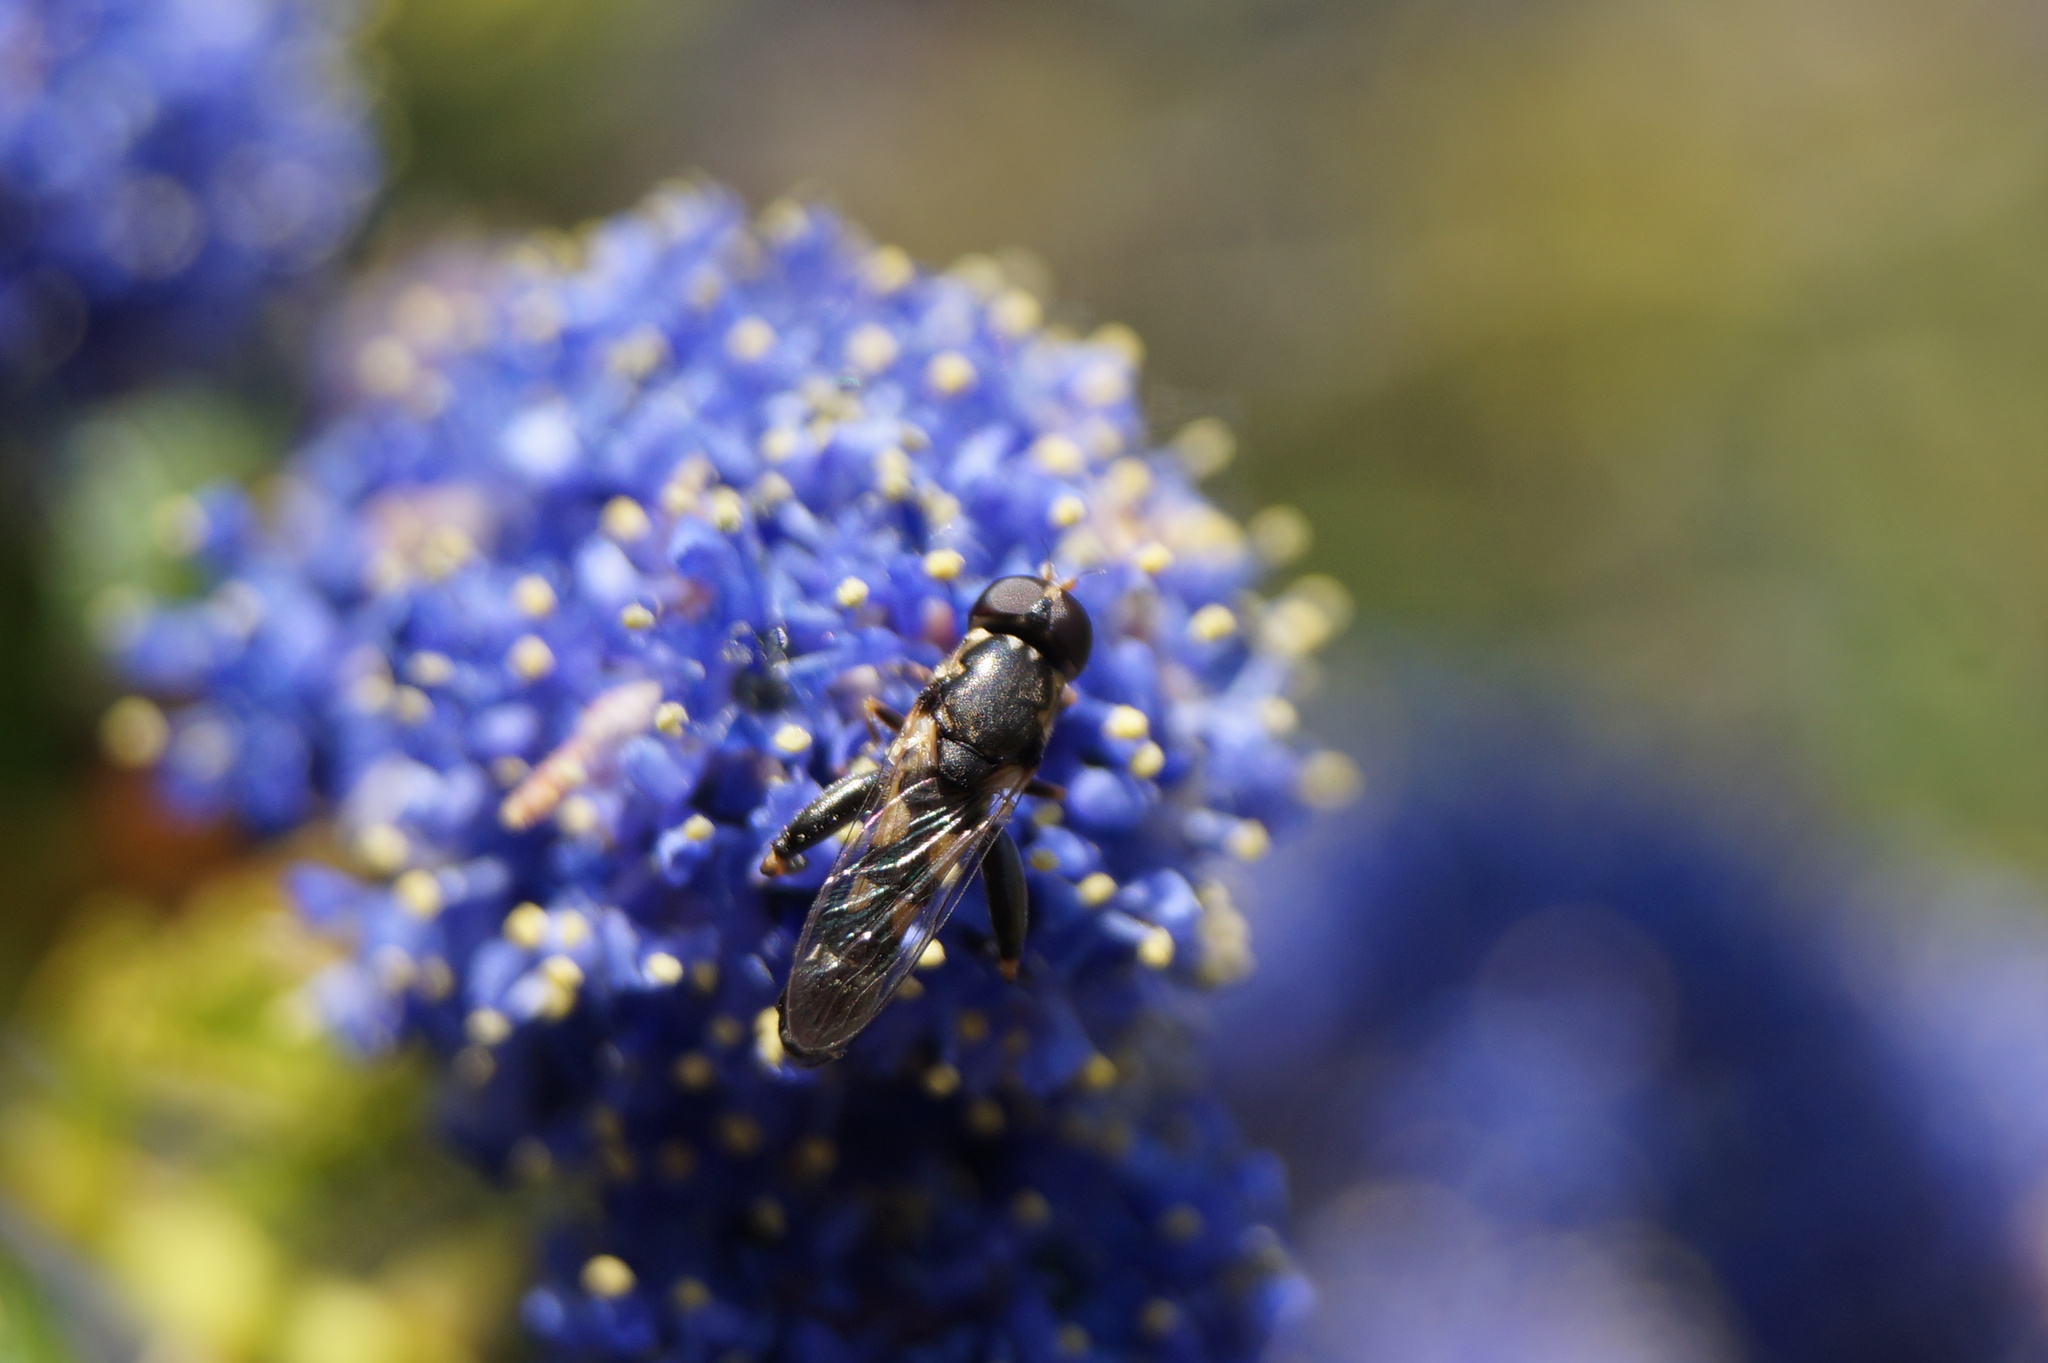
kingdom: Animalia
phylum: Arthropoda
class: Insecta
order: Diptera
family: Syrphidae
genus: Syritta
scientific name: Syritta pipiens
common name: Hover fly
